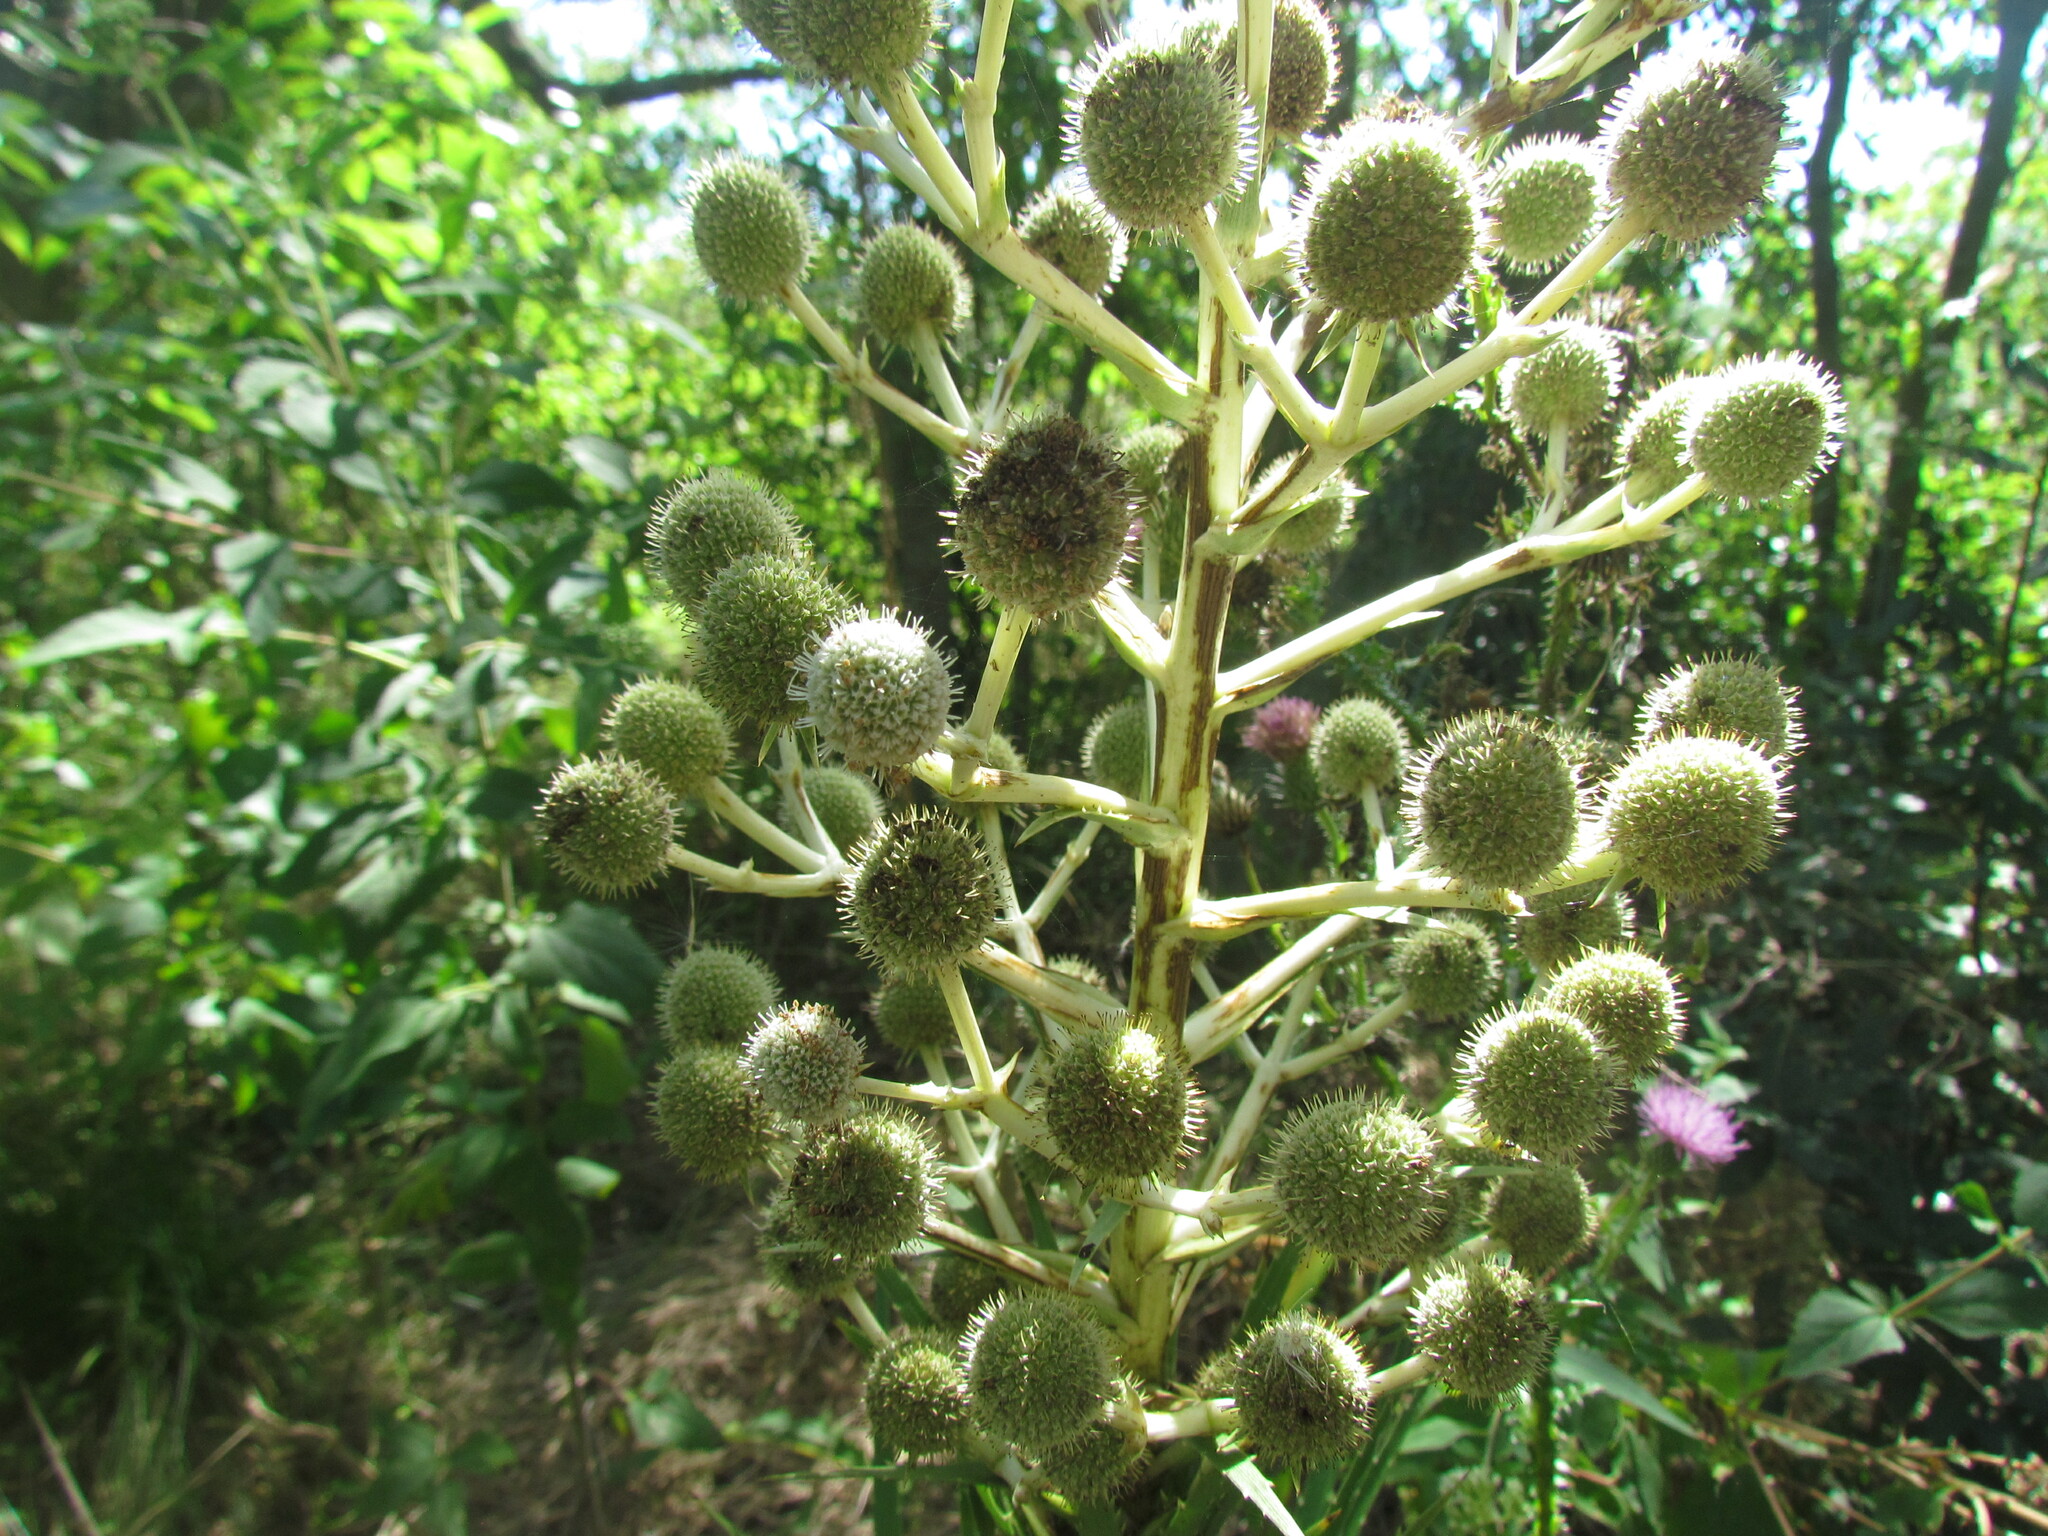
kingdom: Plantae
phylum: Tracheophyta
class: Magnoliopsida
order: Apiales
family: Apiaceae
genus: Eryngium
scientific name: Eryngium eburneum
